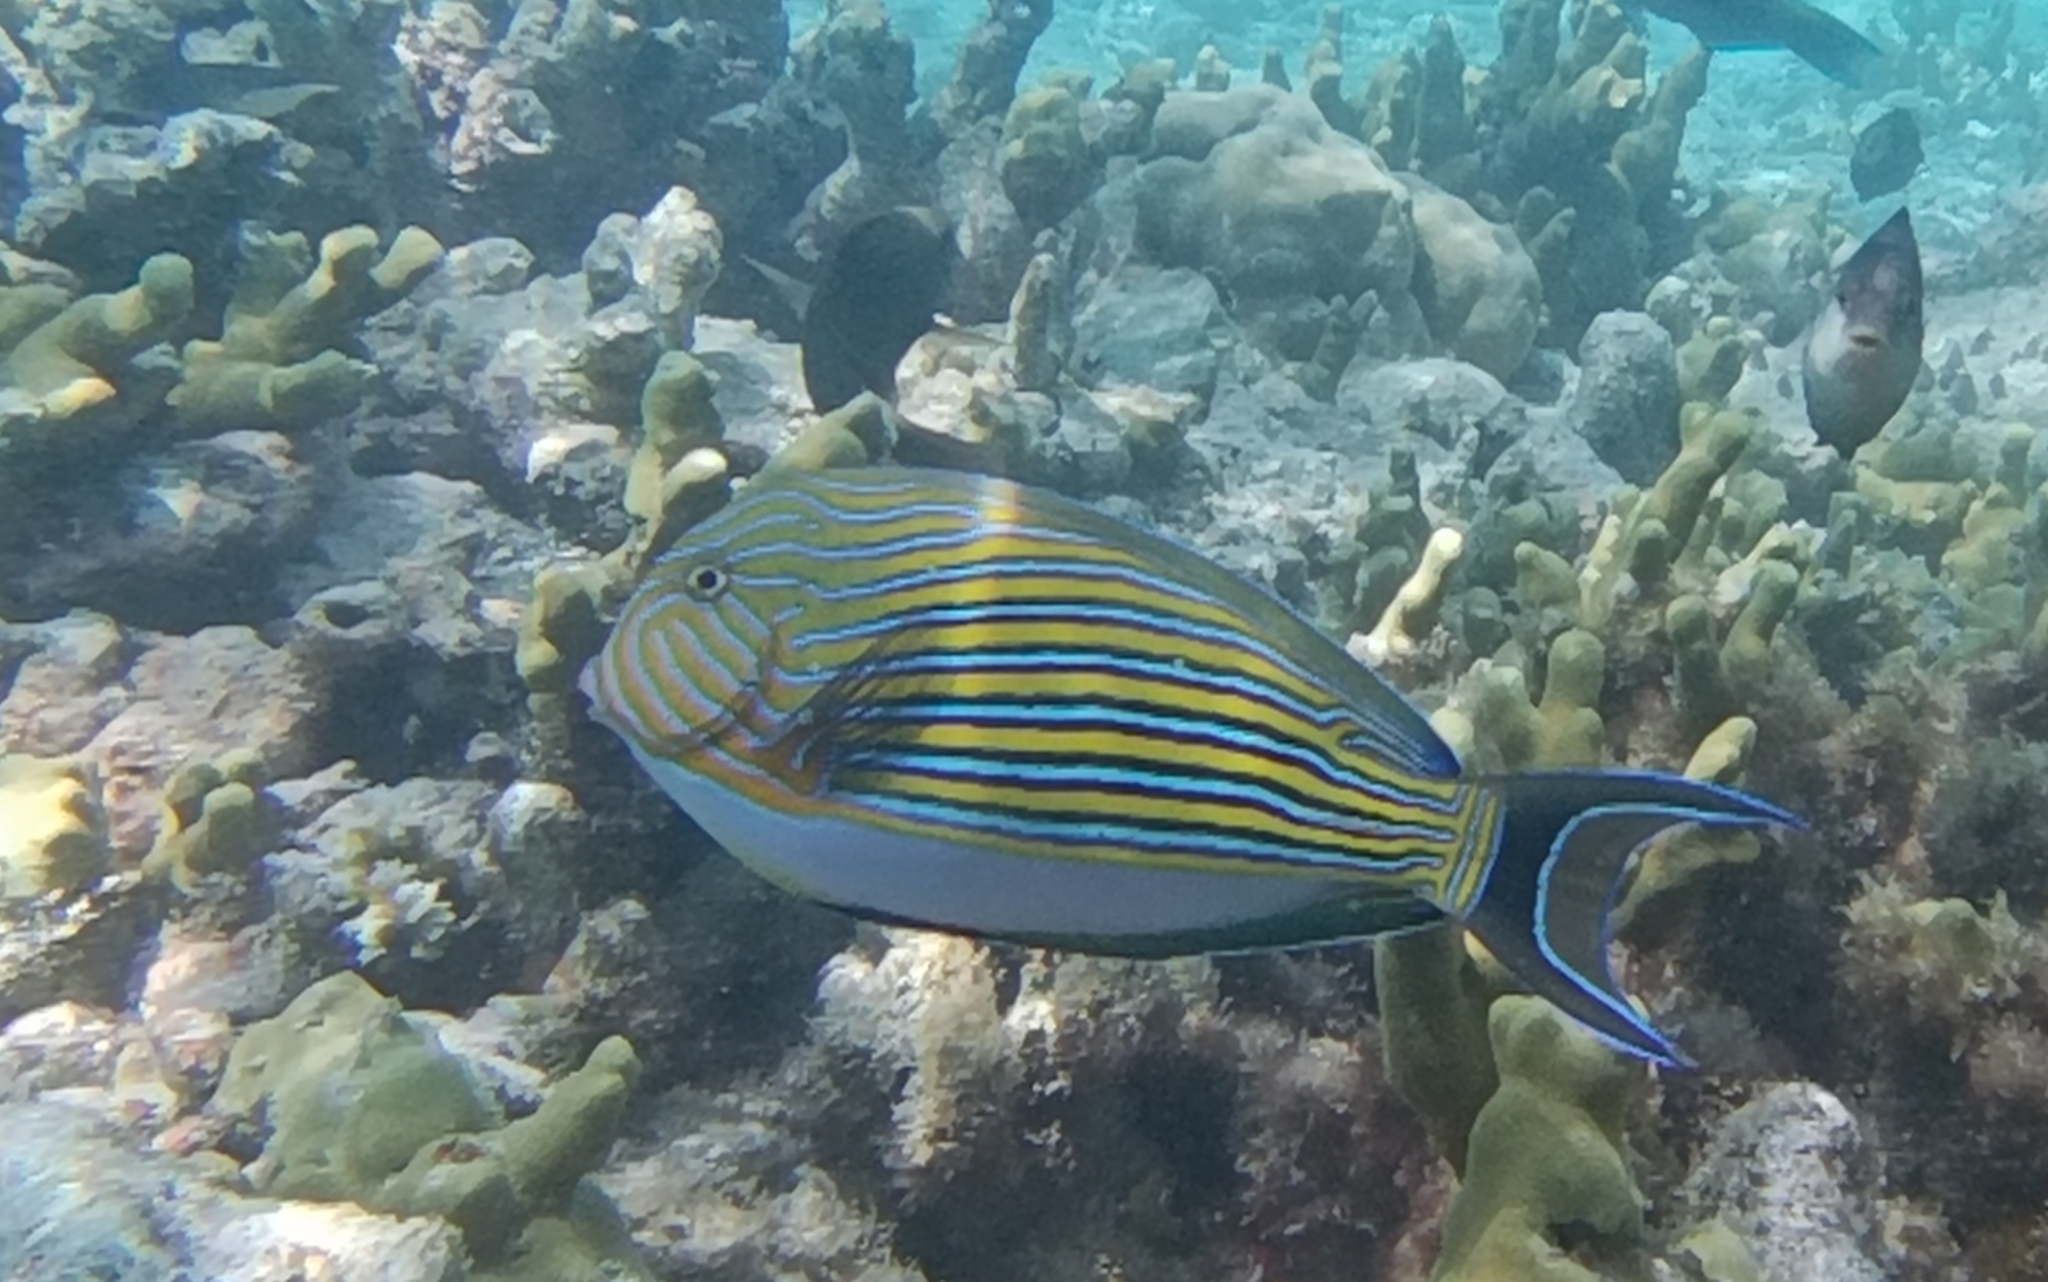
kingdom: Animalia
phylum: Chordata
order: Perciformes
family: Acanthuridae
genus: Acanthurus
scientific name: Acanthurus lineatus
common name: Striped surgeonfish
